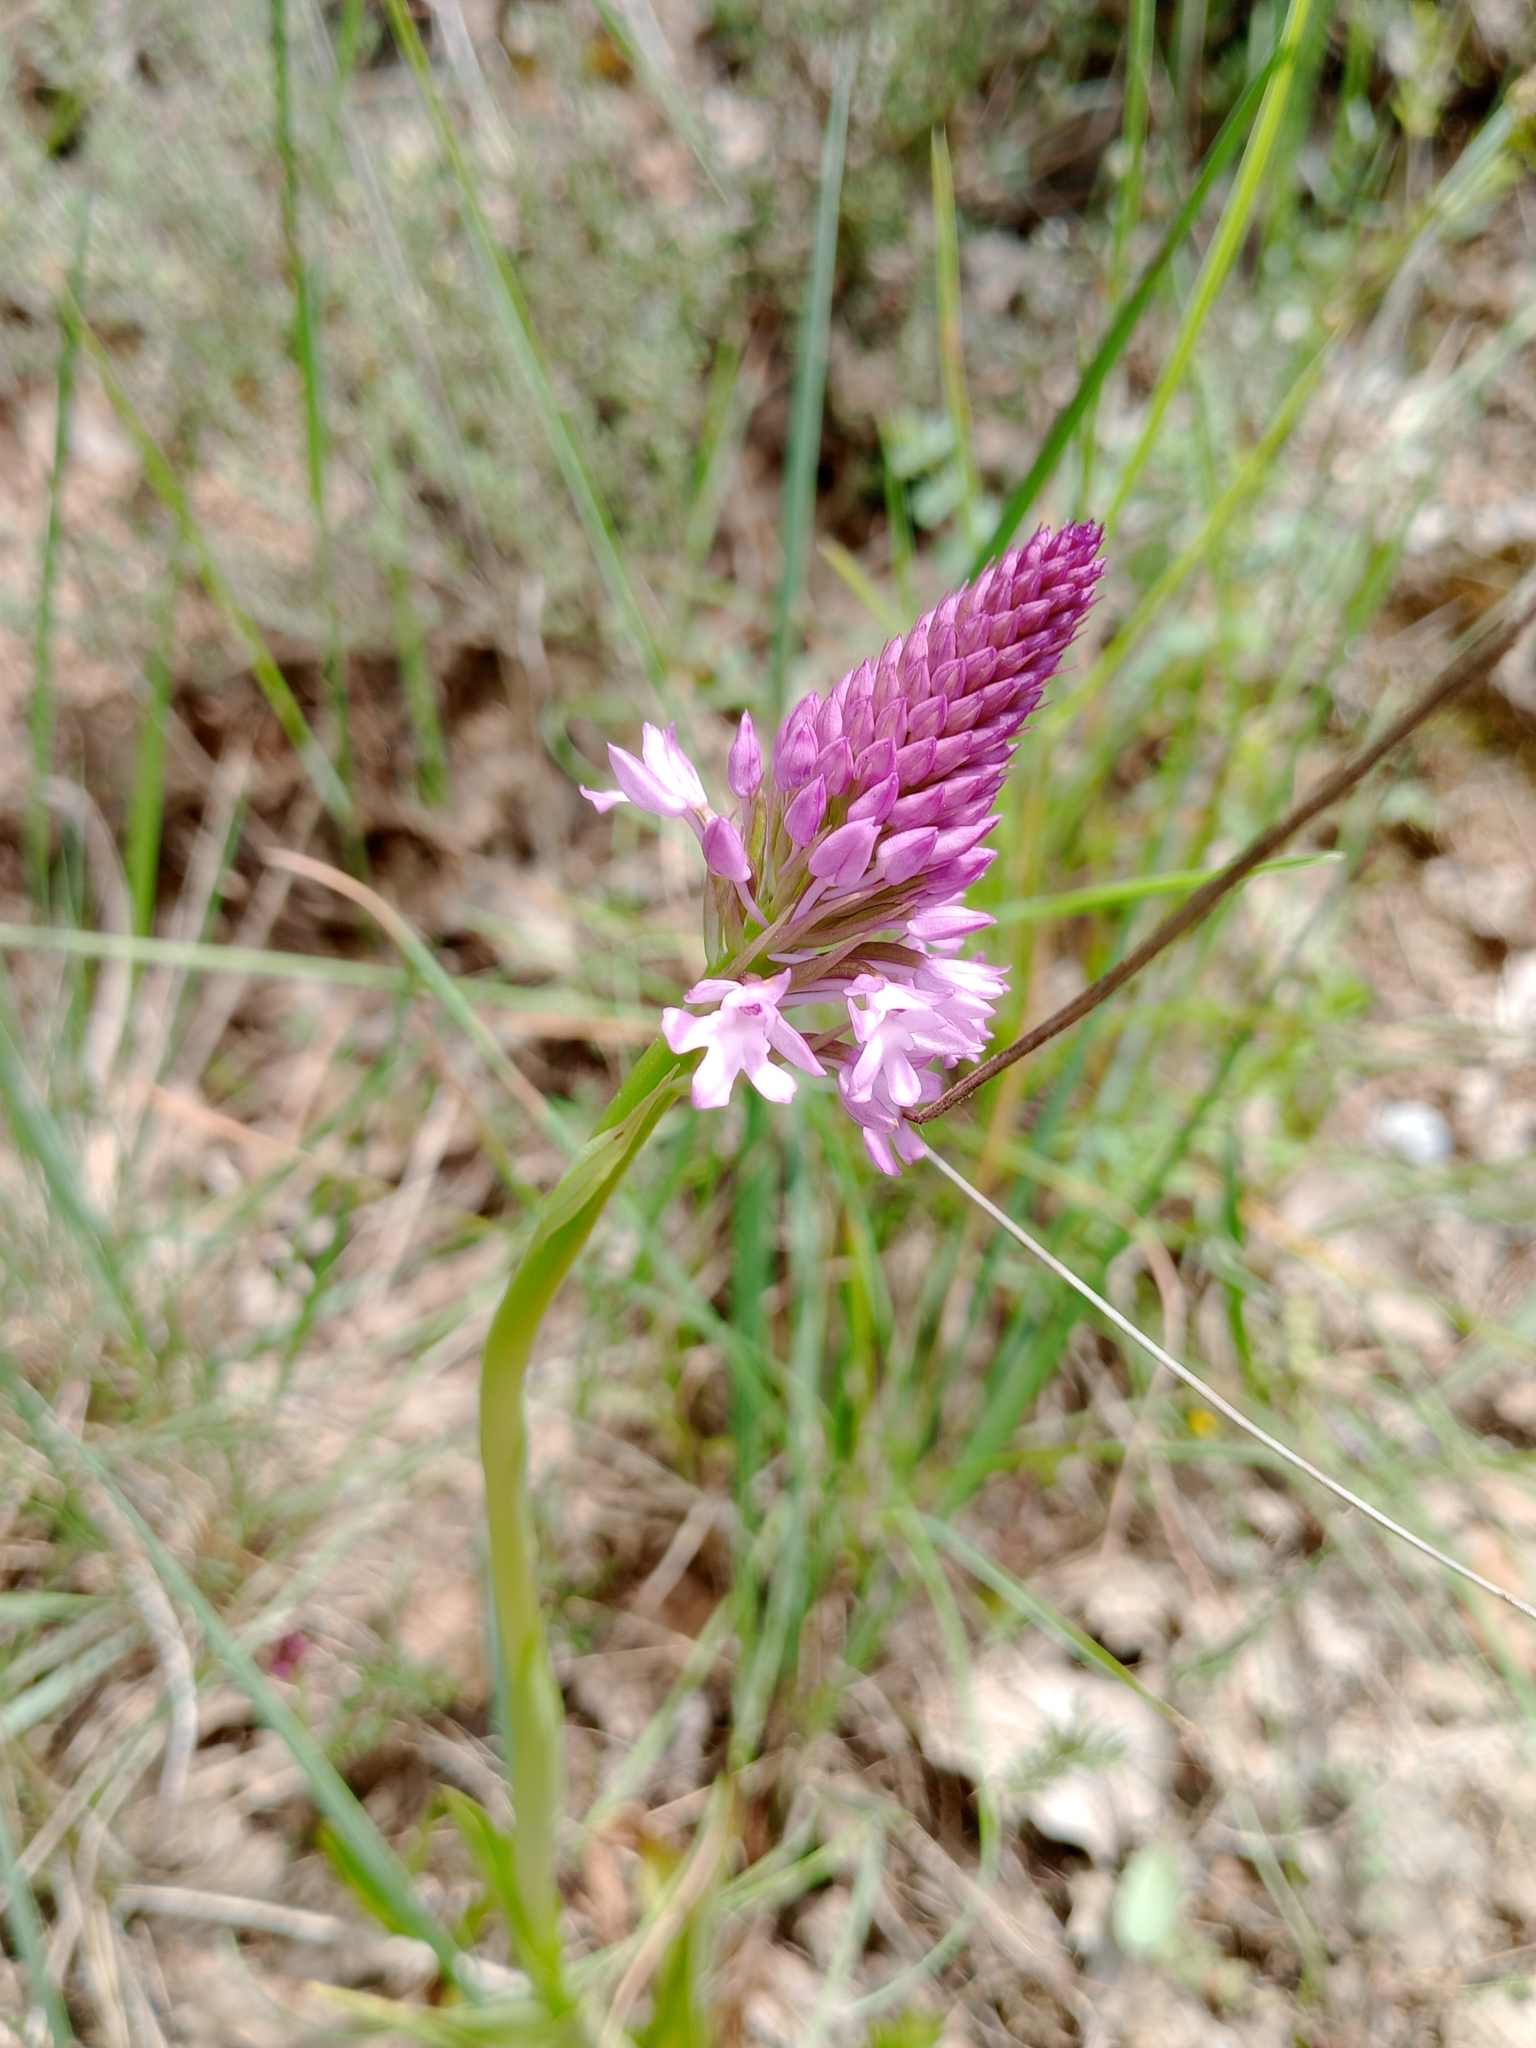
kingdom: Plantae
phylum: Tracheophyta
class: Liliopsida
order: Asparagales
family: Orchidaceae
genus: Anacamptis
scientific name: Anacamptis pyramidalis
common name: Pyramidal orchid
